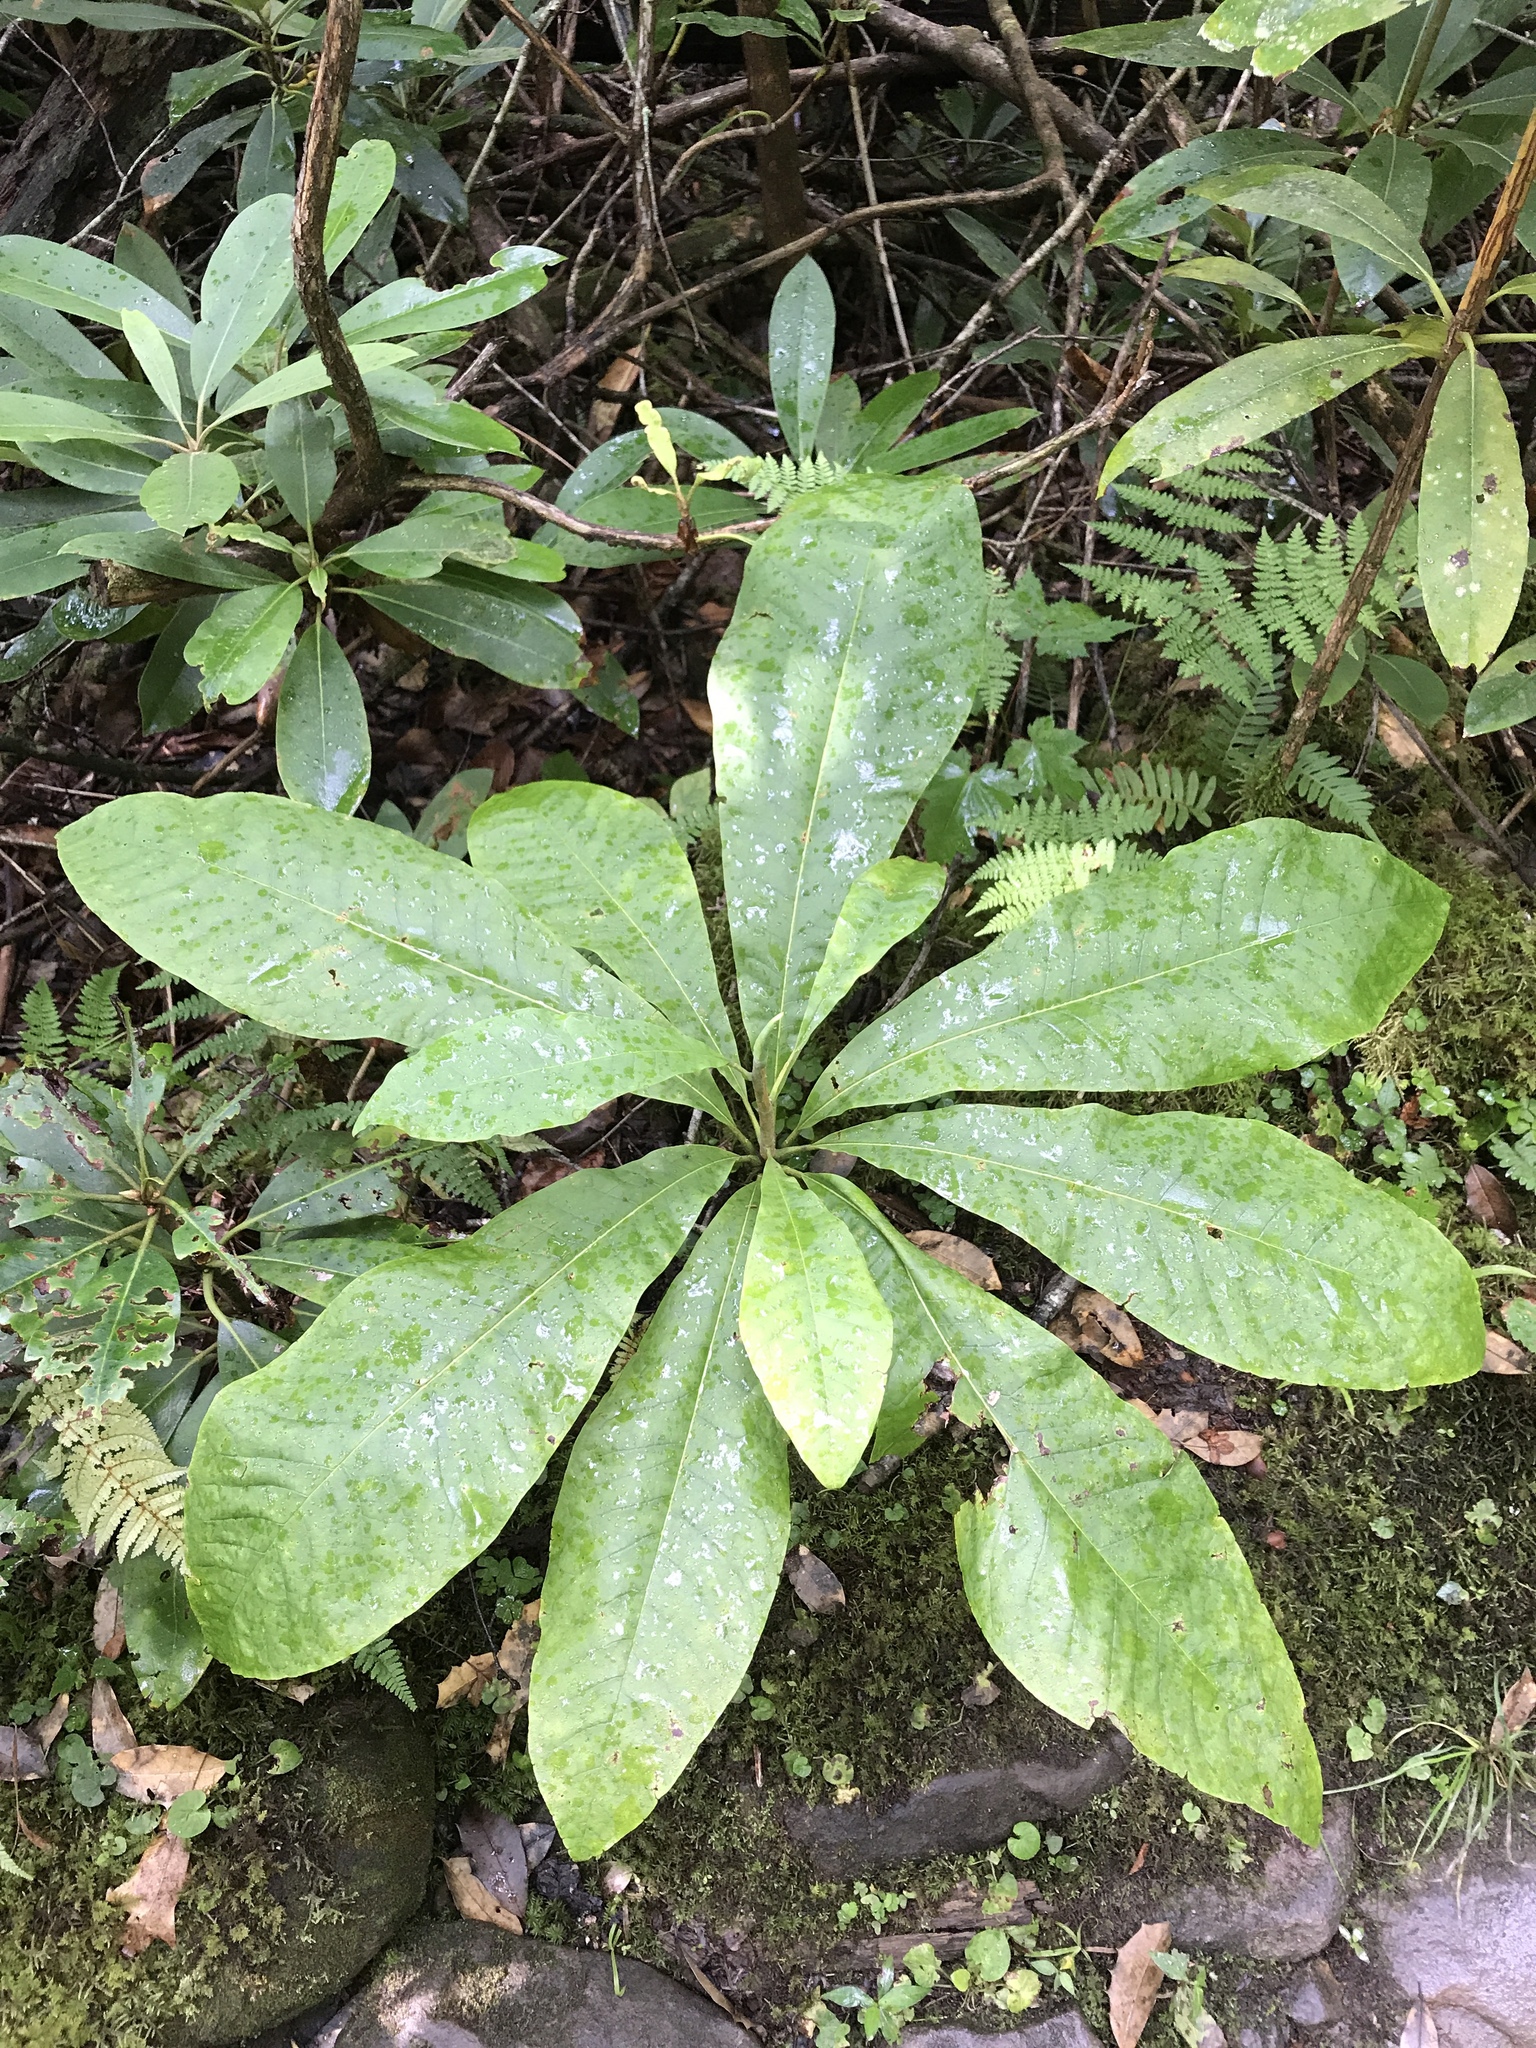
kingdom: Plantae
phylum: Tracheophyta
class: Magnoliopsida
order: Magnoliales
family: Magnoliaceae
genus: Magnolia
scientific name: Magnolia tripetala
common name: Umbrella magnolia
